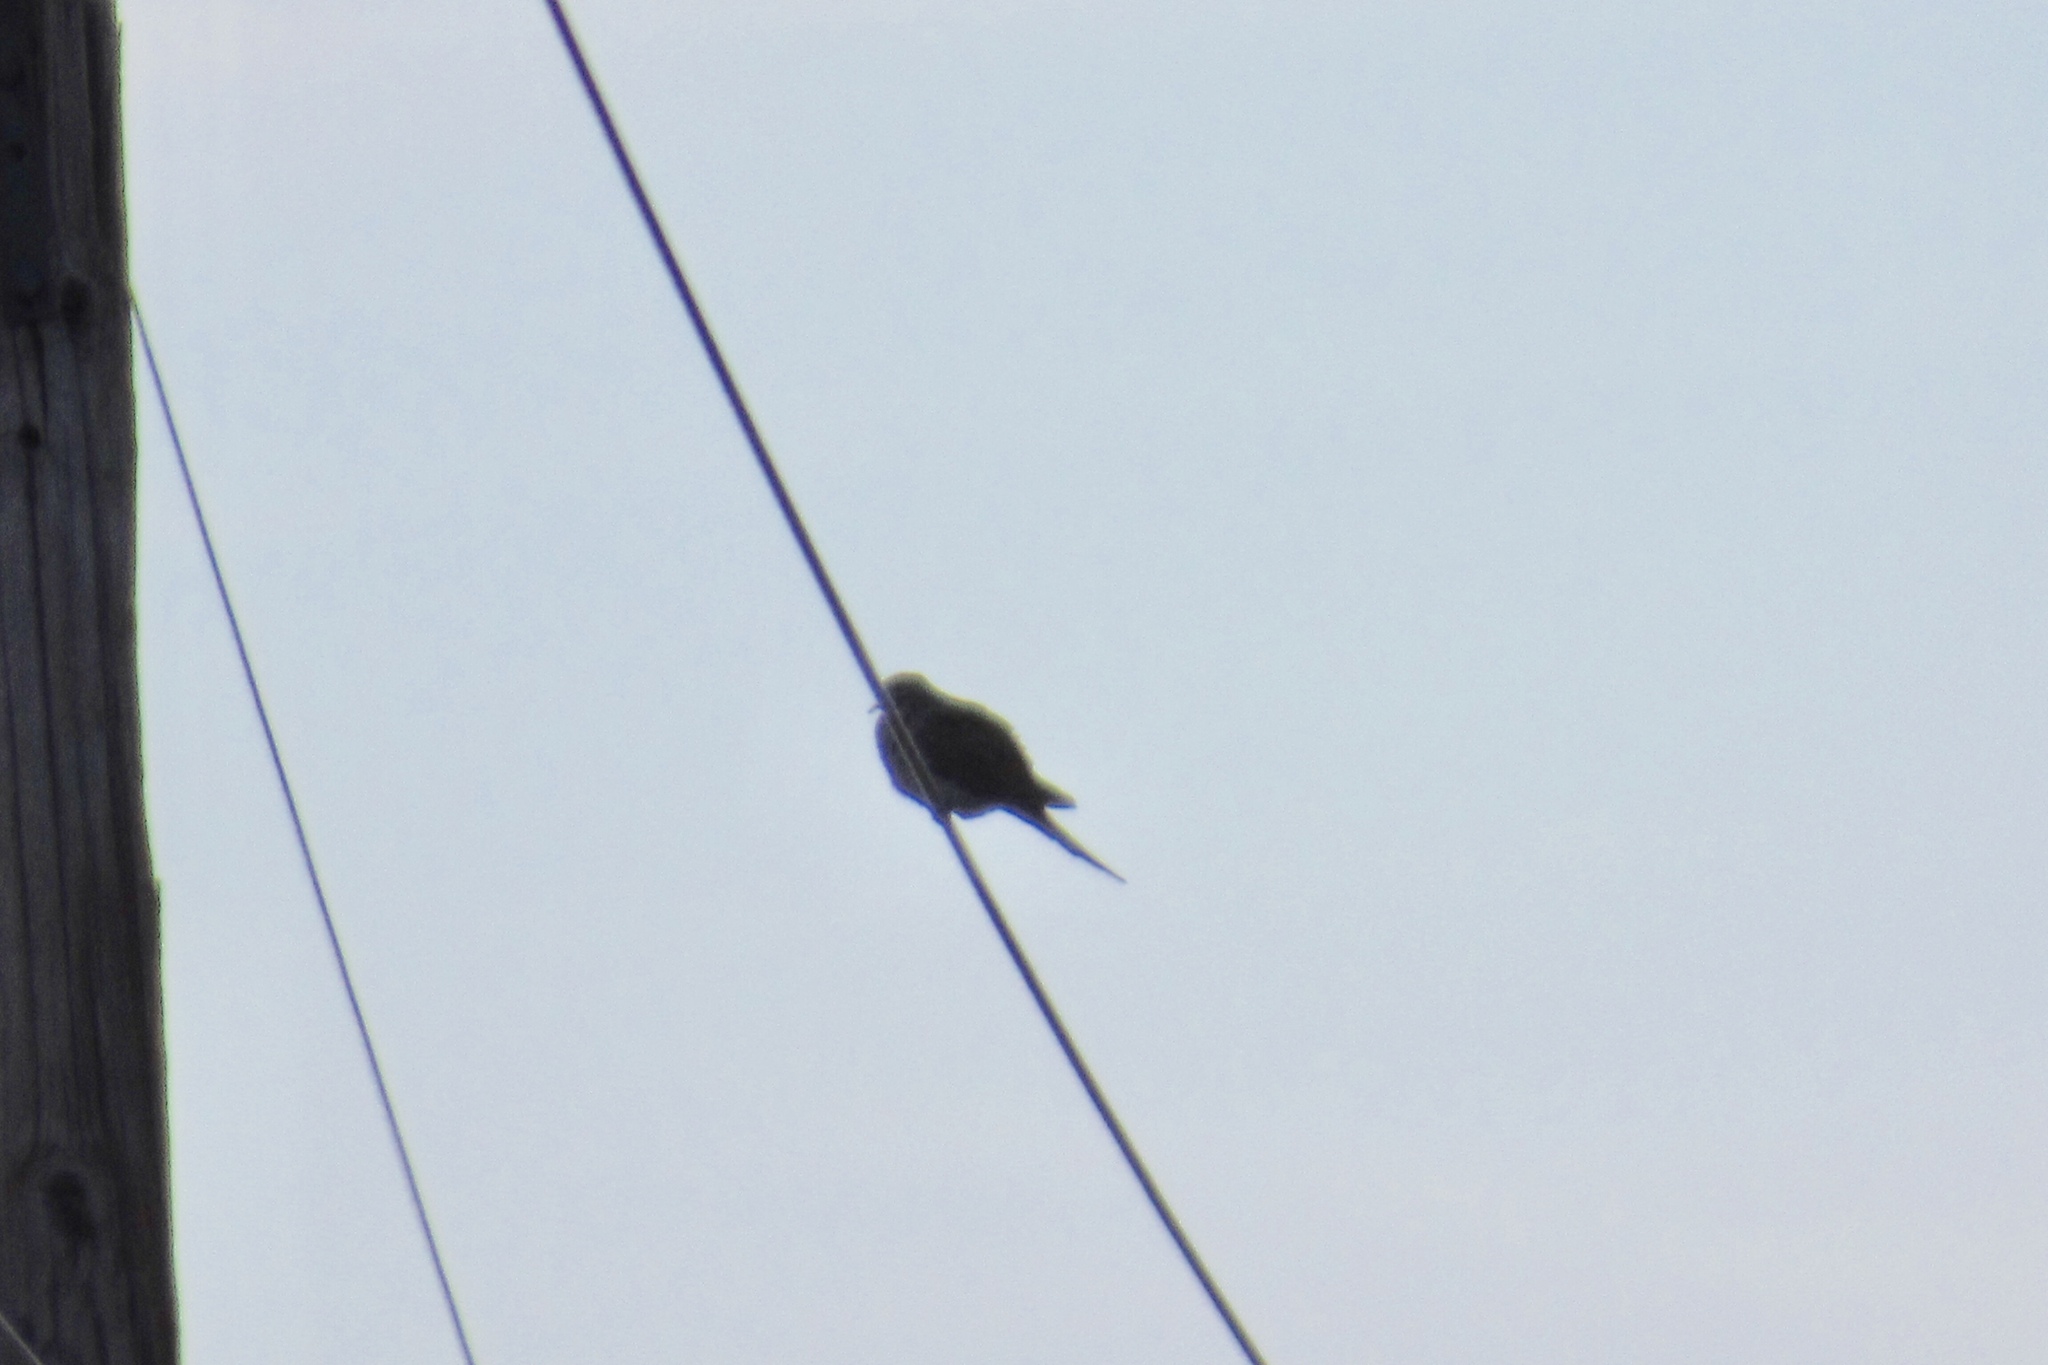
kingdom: Animalia
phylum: Chordata
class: Aves
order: Columbiformes
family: Columbidae
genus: Zenaida
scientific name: Zenaida macroura
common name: Mourning dove
